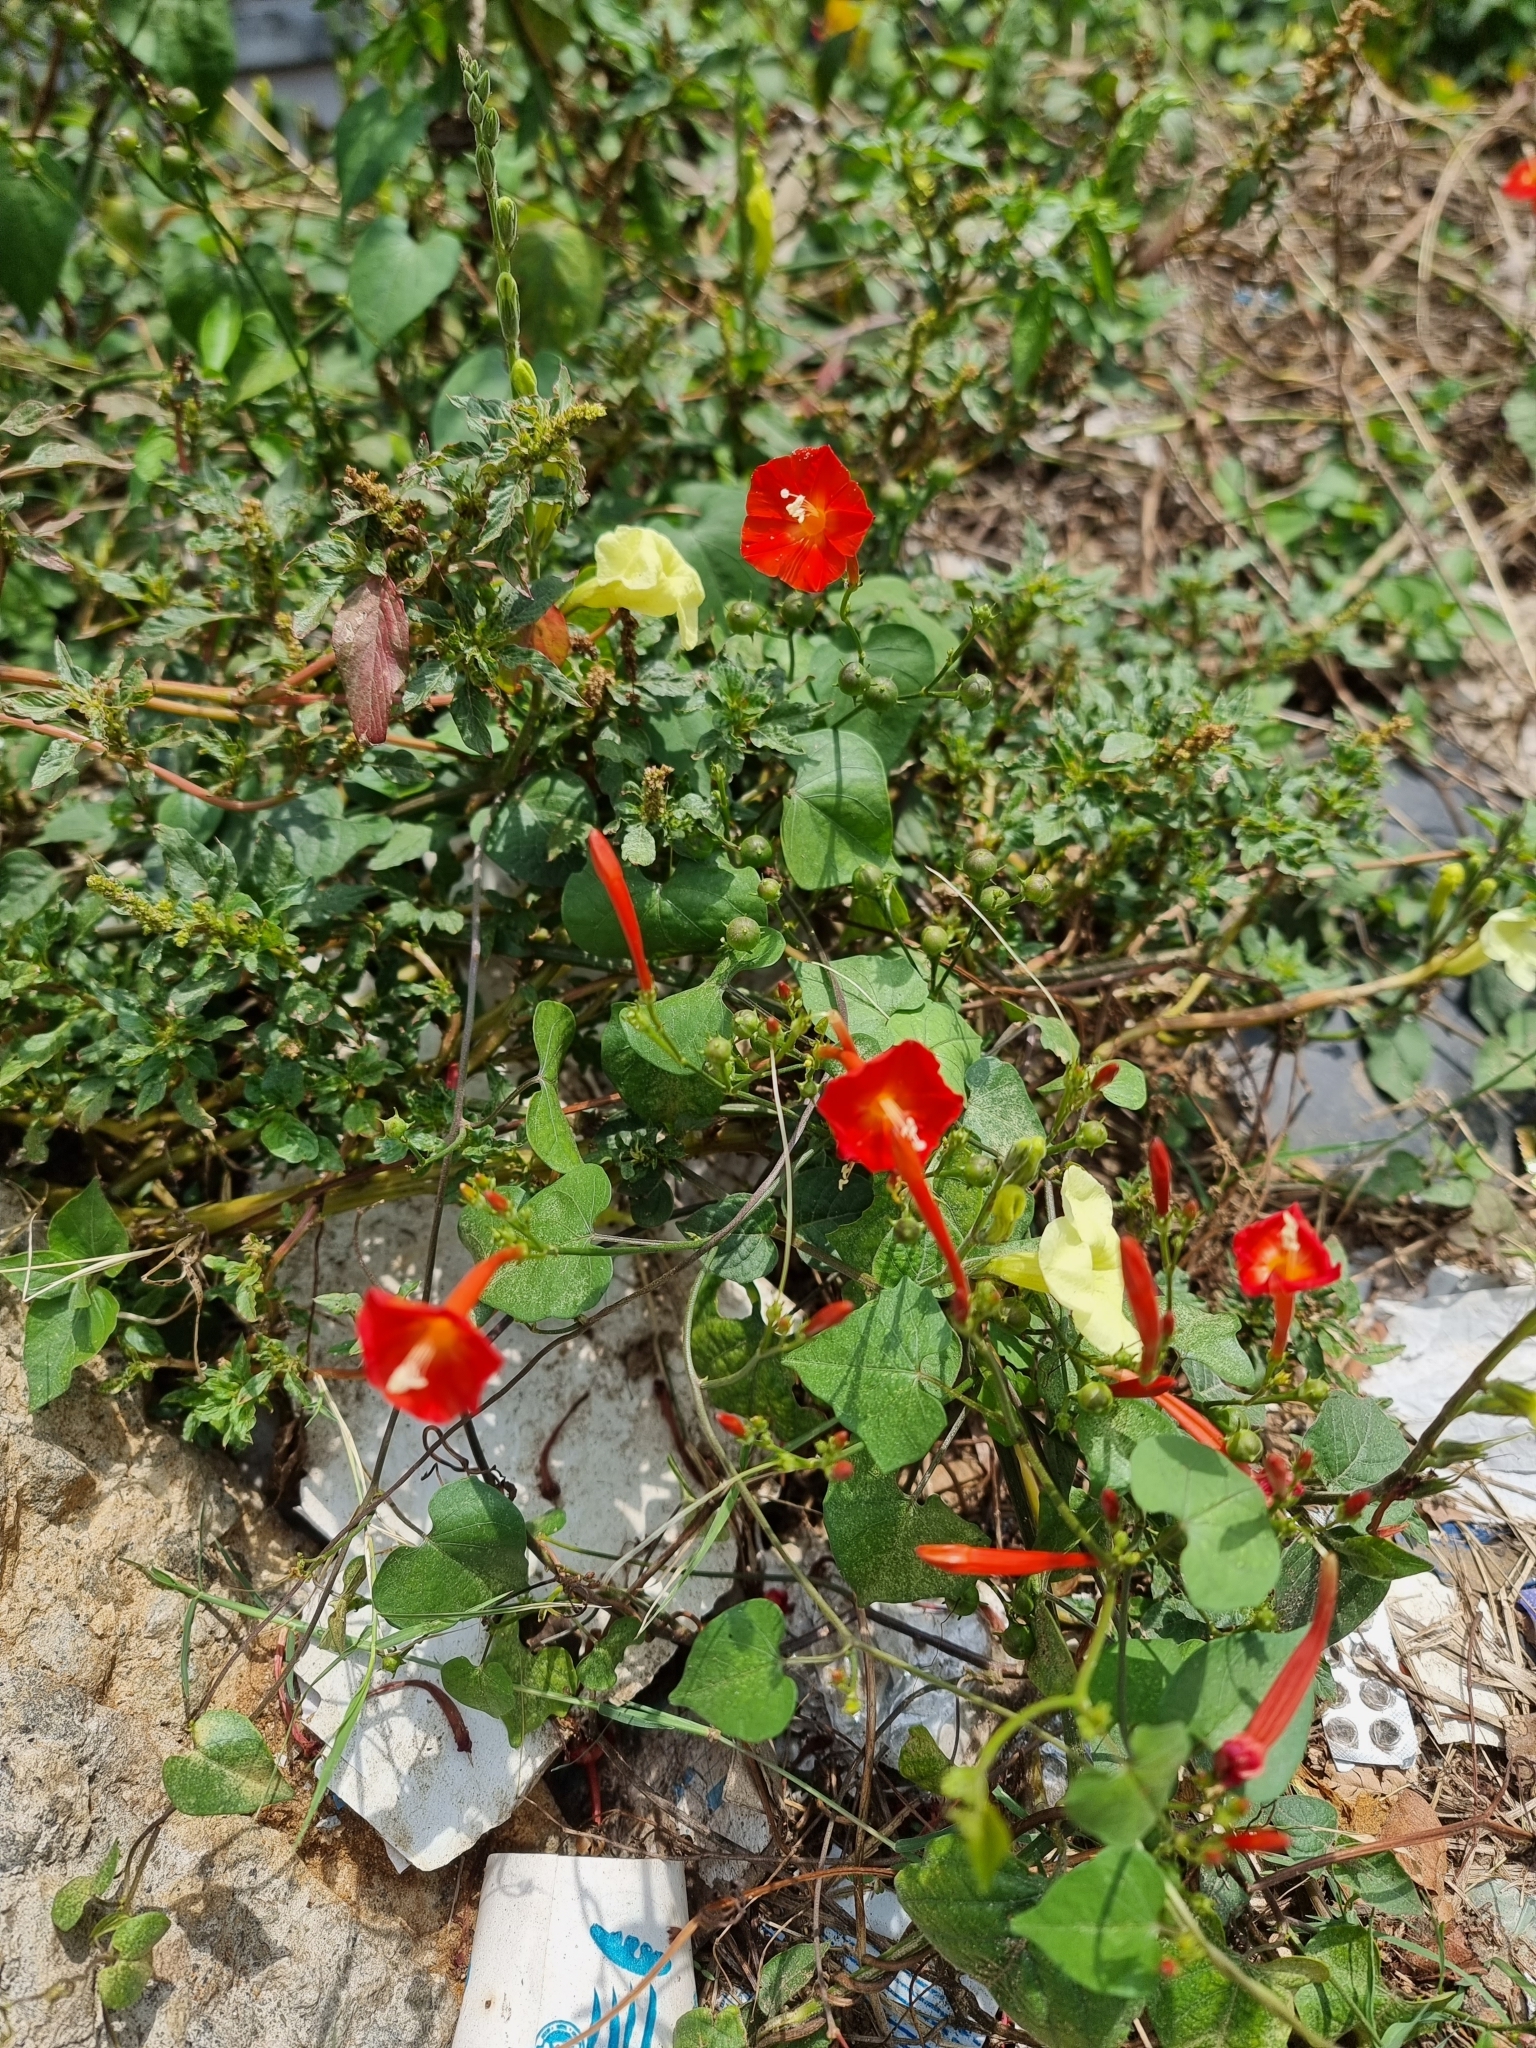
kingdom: Plantae
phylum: Tracheophyta
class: Magnoliopsida
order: Solanales
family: Convolvulaceae
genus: Ipomoea
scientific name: Ipomoea hederifolia
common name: Ivy-leaf morning-glory
